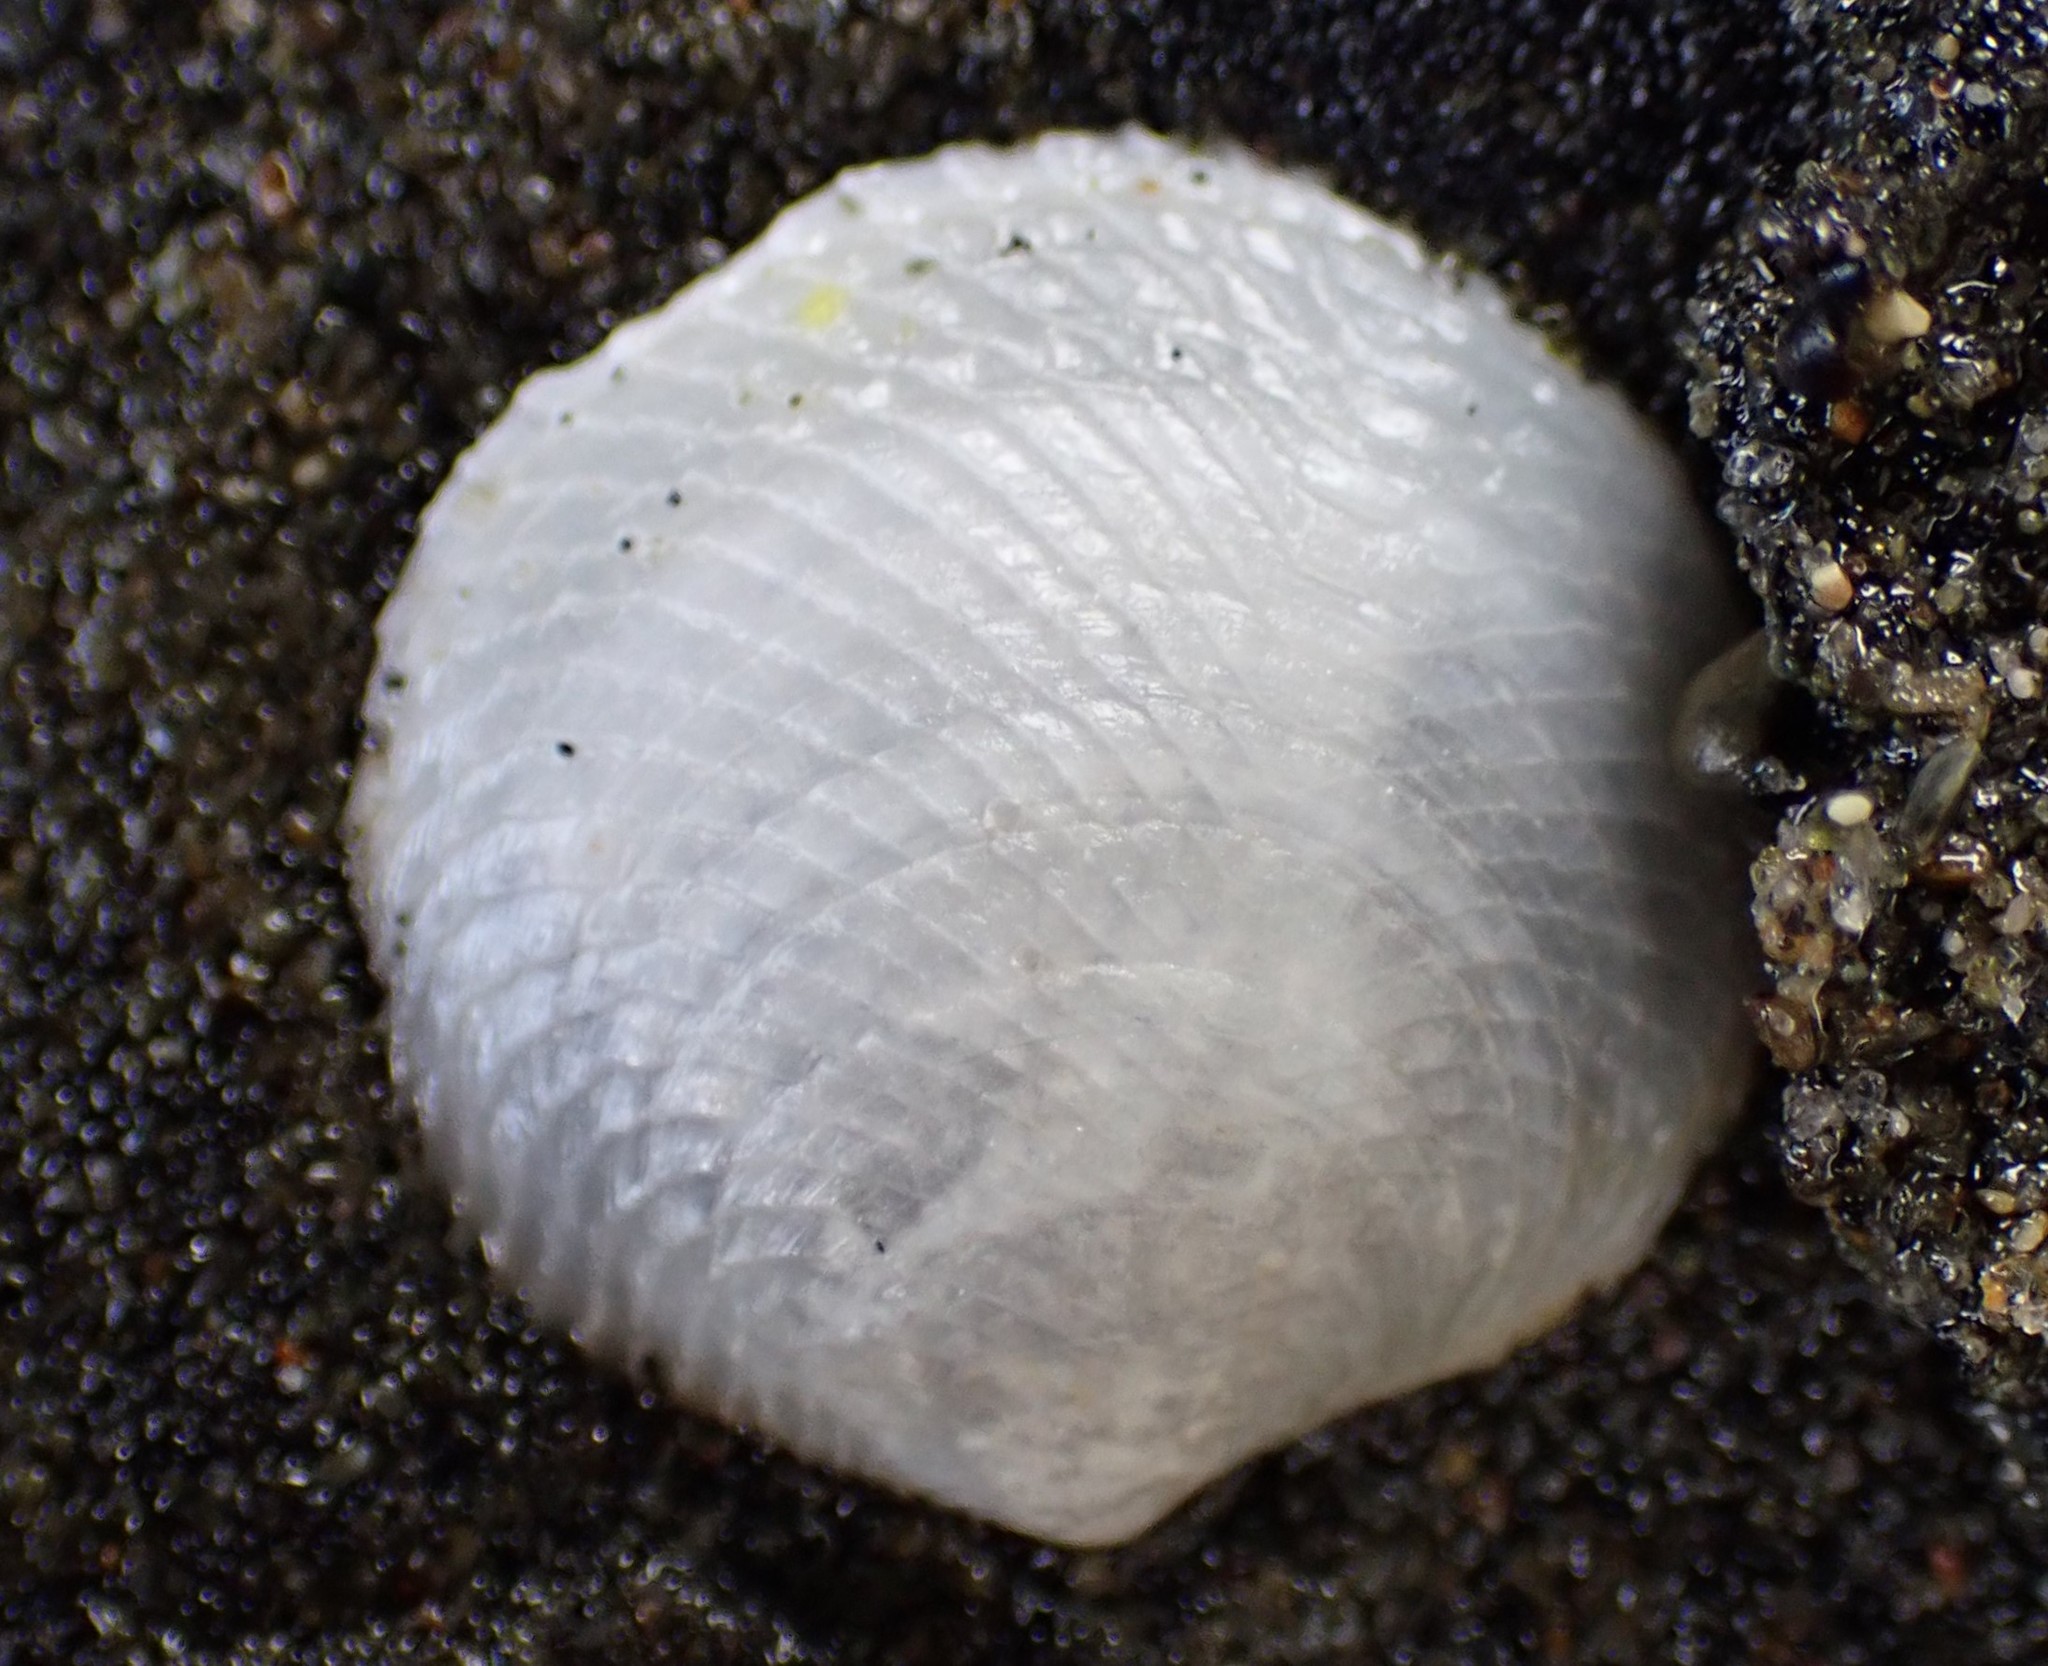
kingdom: Animalia
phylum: Mollusca
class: Bivalvia
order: Lucinida
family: Lucinidae
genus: Divalucina
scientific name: Divalucina cumingi
